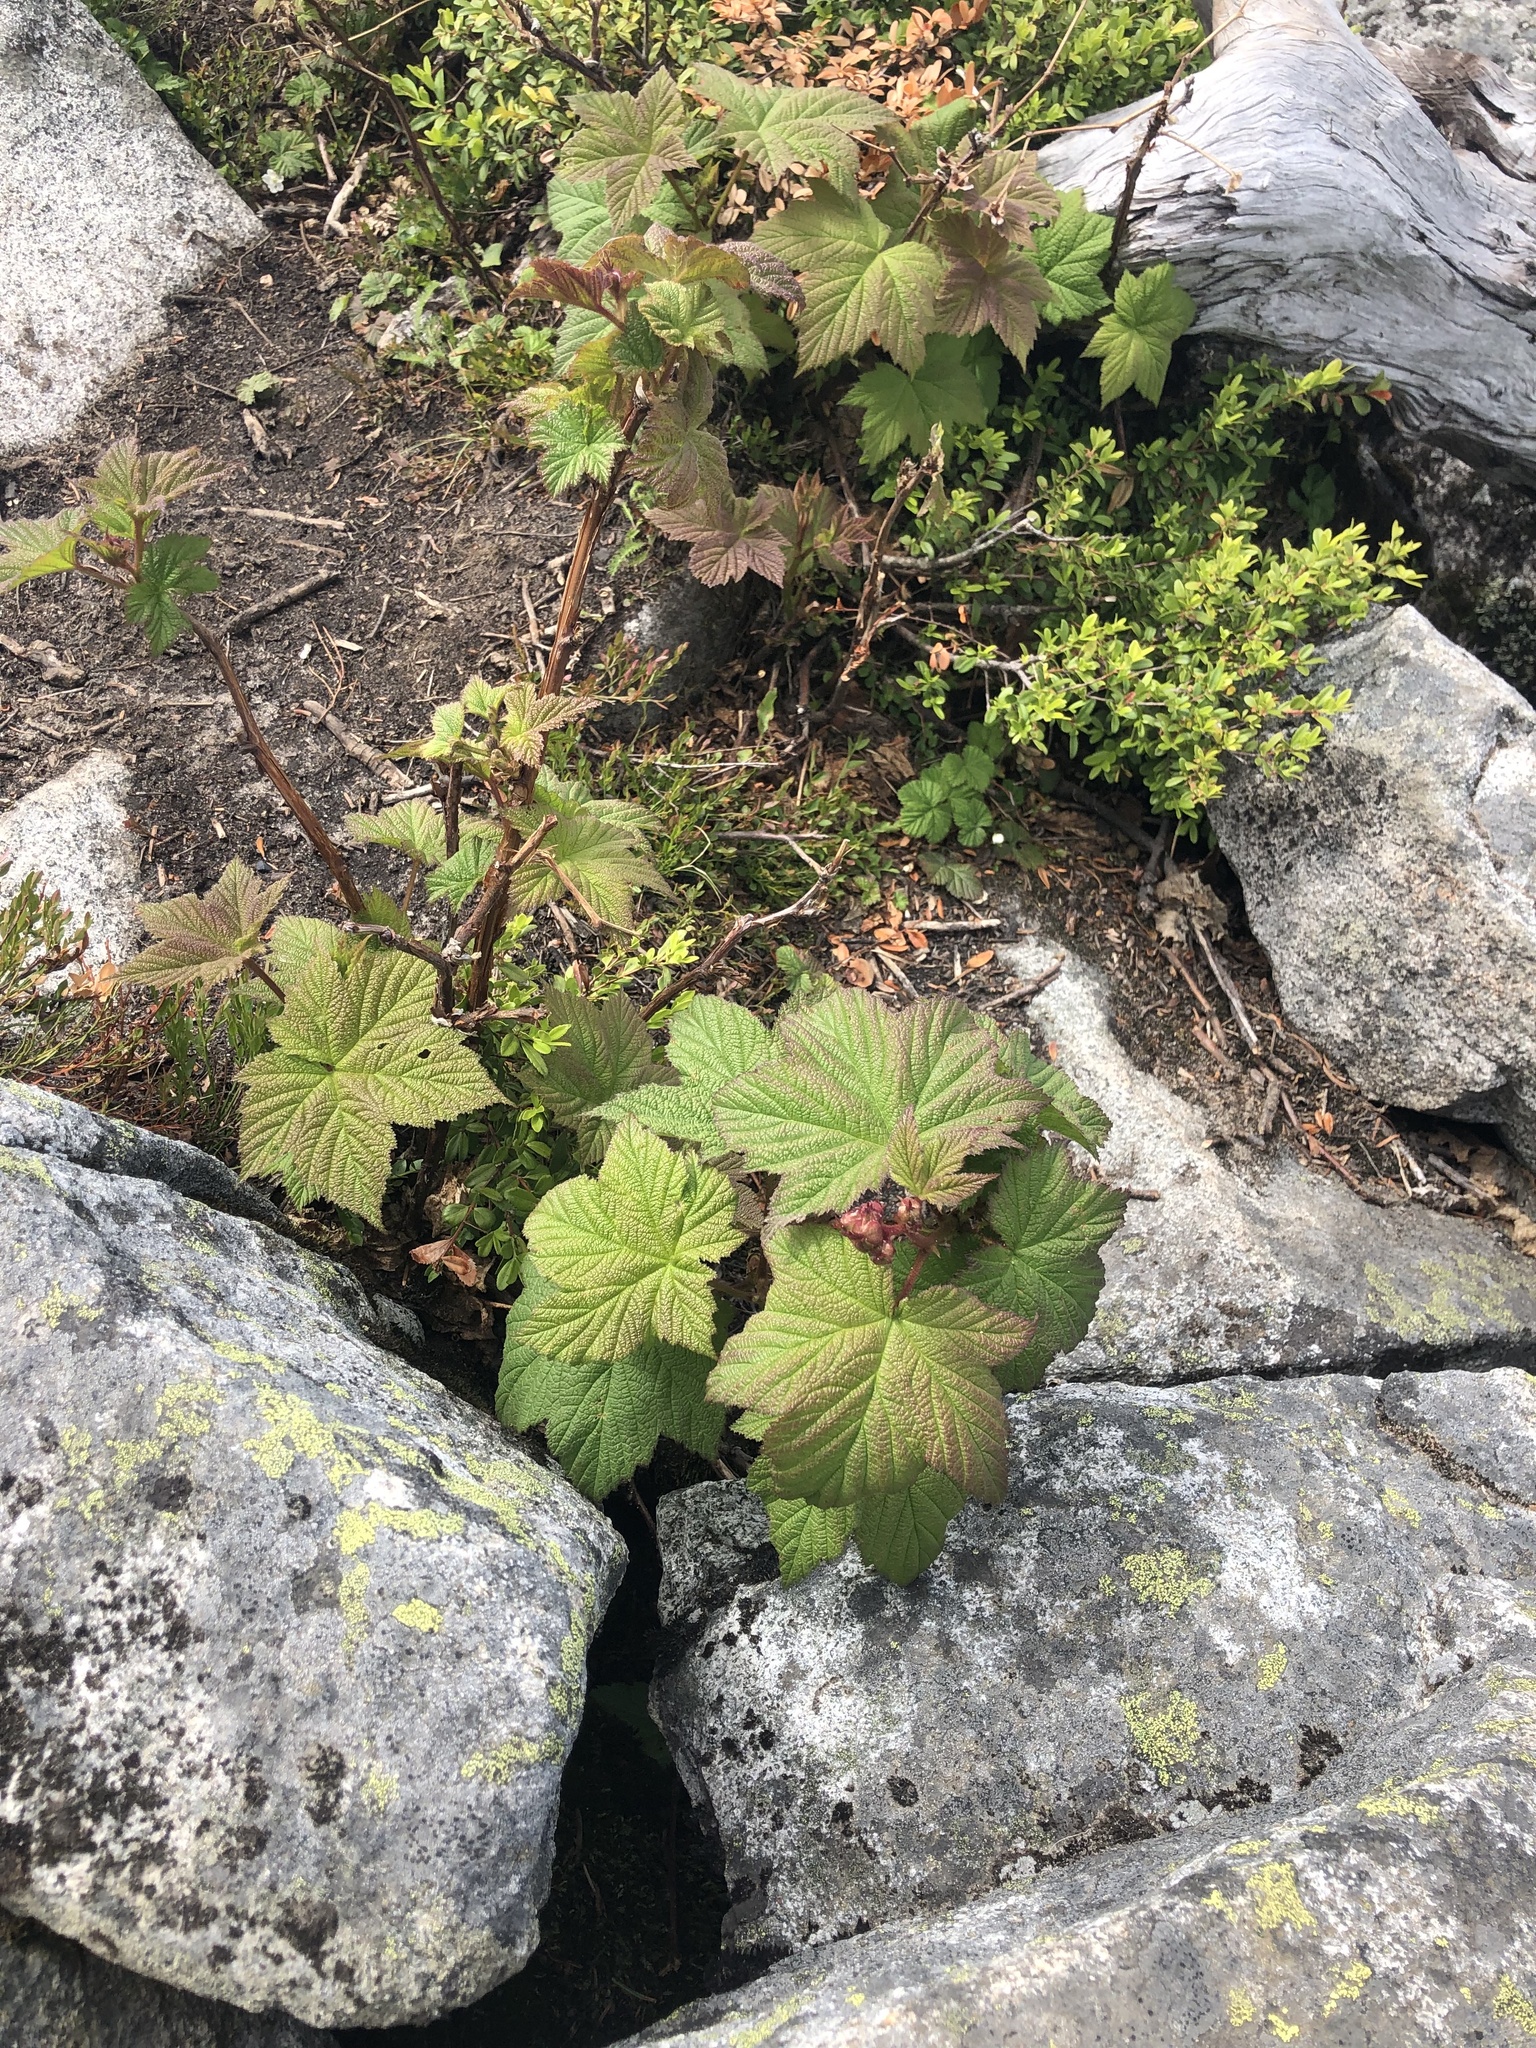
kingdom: Plantae
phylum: Tracheophyta
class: Magnoliopsida
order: Rosales
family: Rosaceae
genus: Rubus
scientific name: Rubus parviflorus
